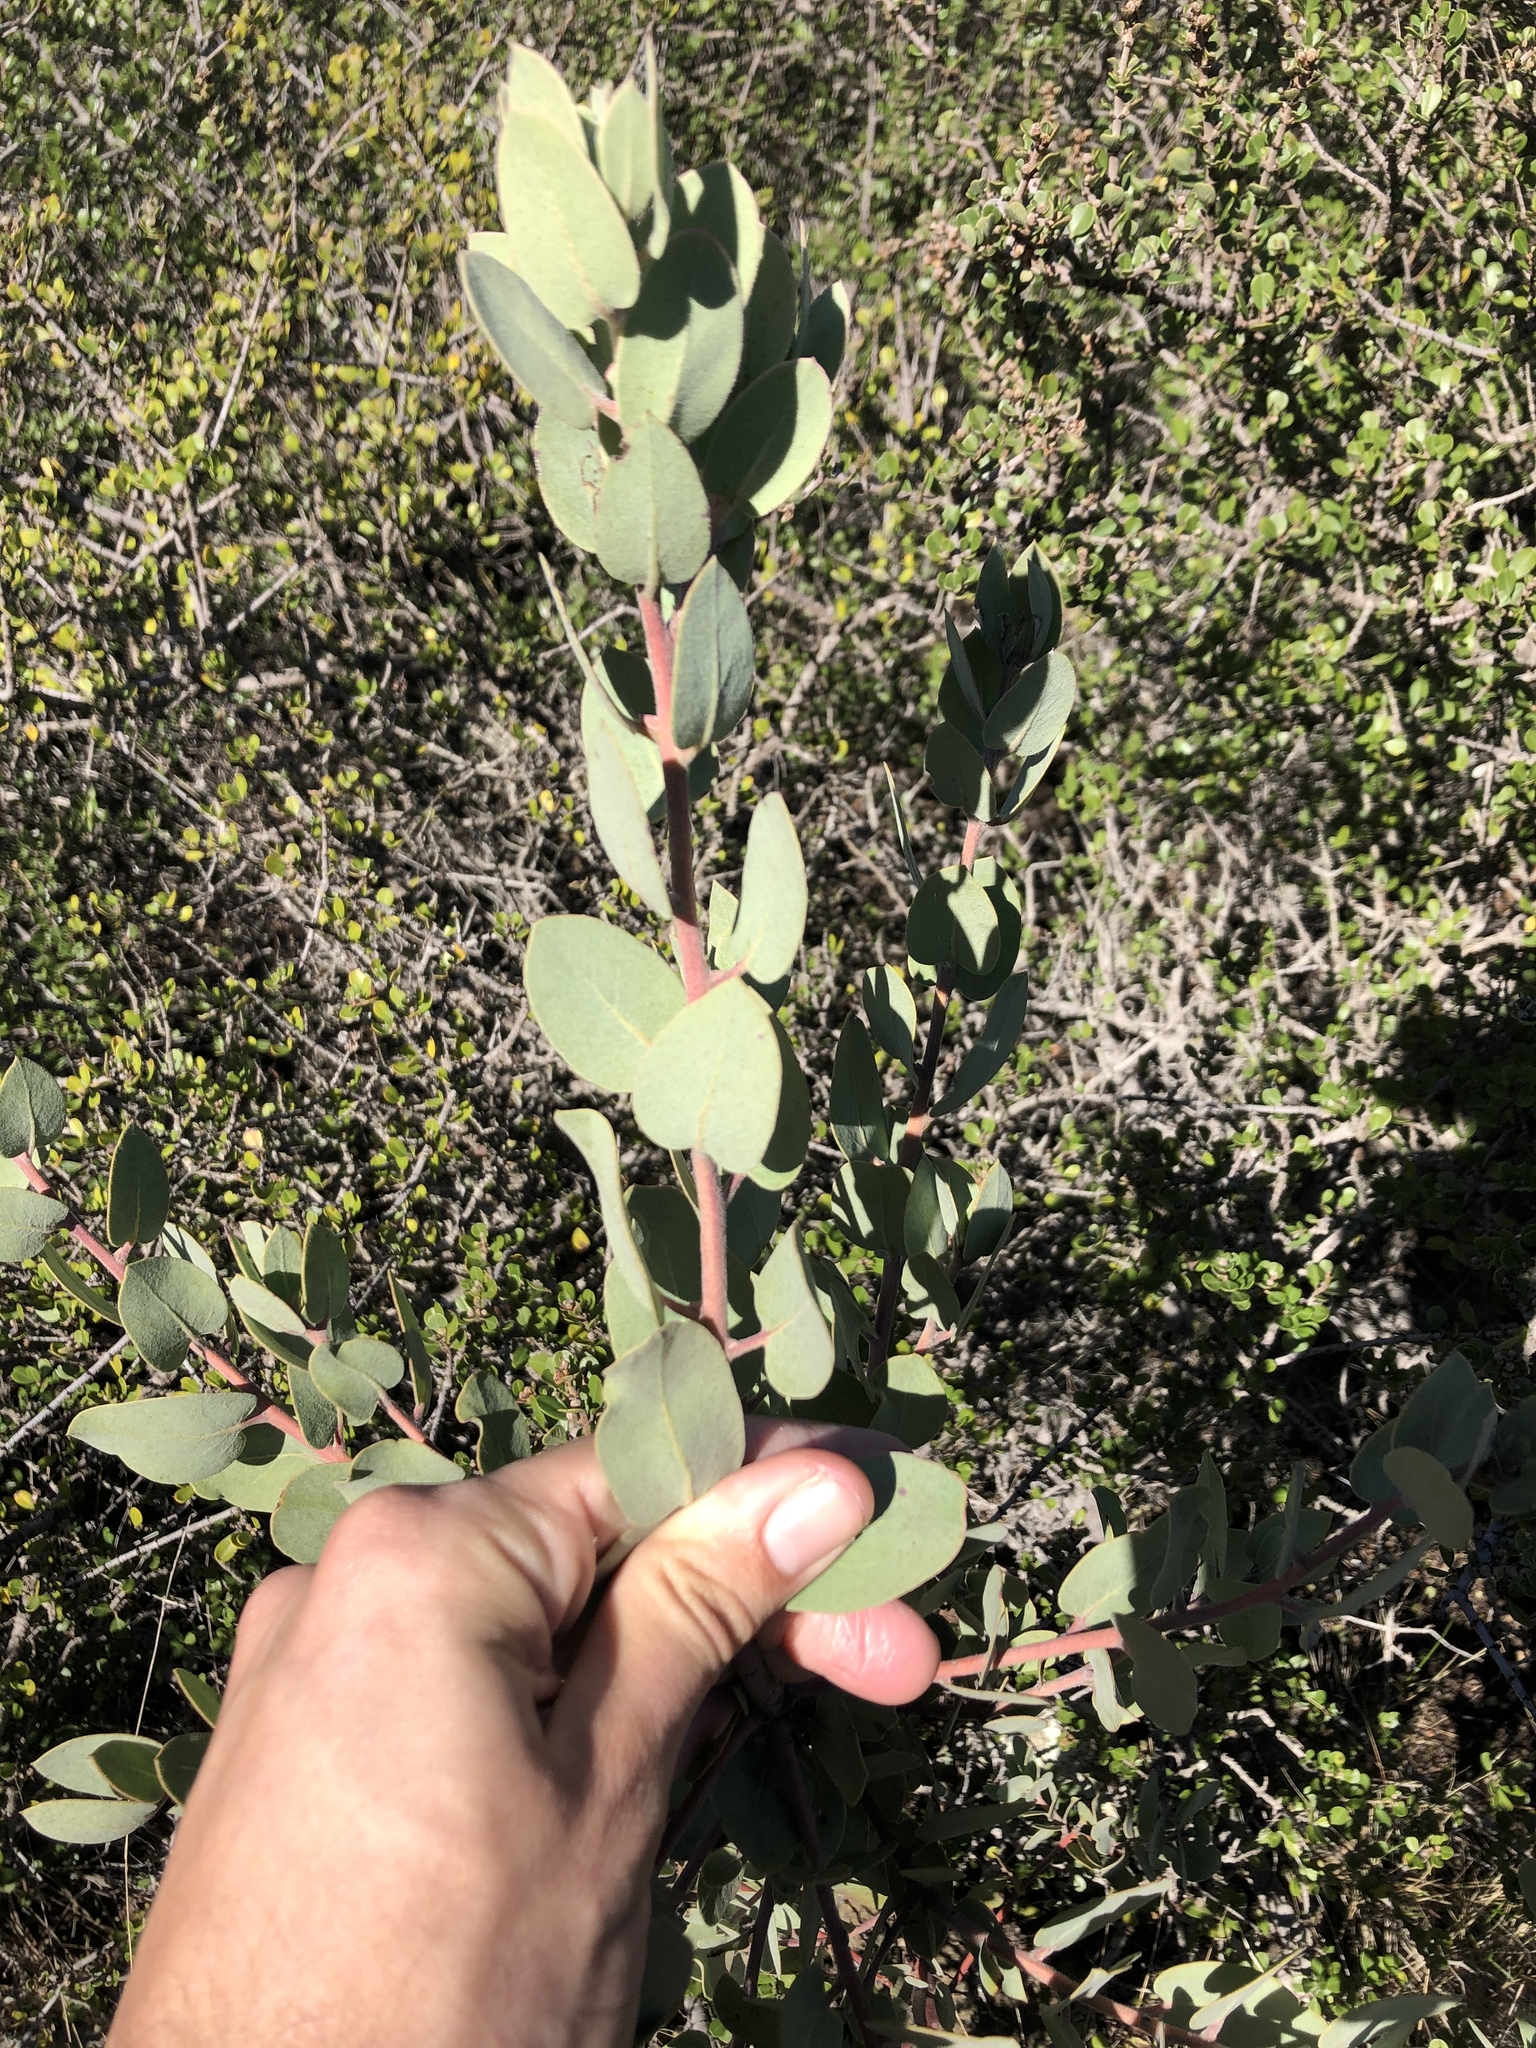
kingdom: Plantae
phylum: Tracheophyta
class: Magnoliopsida
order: Ericales
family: Ericaceae
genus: Arctostaphylos
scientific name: Arctostaphylos obispoensis
